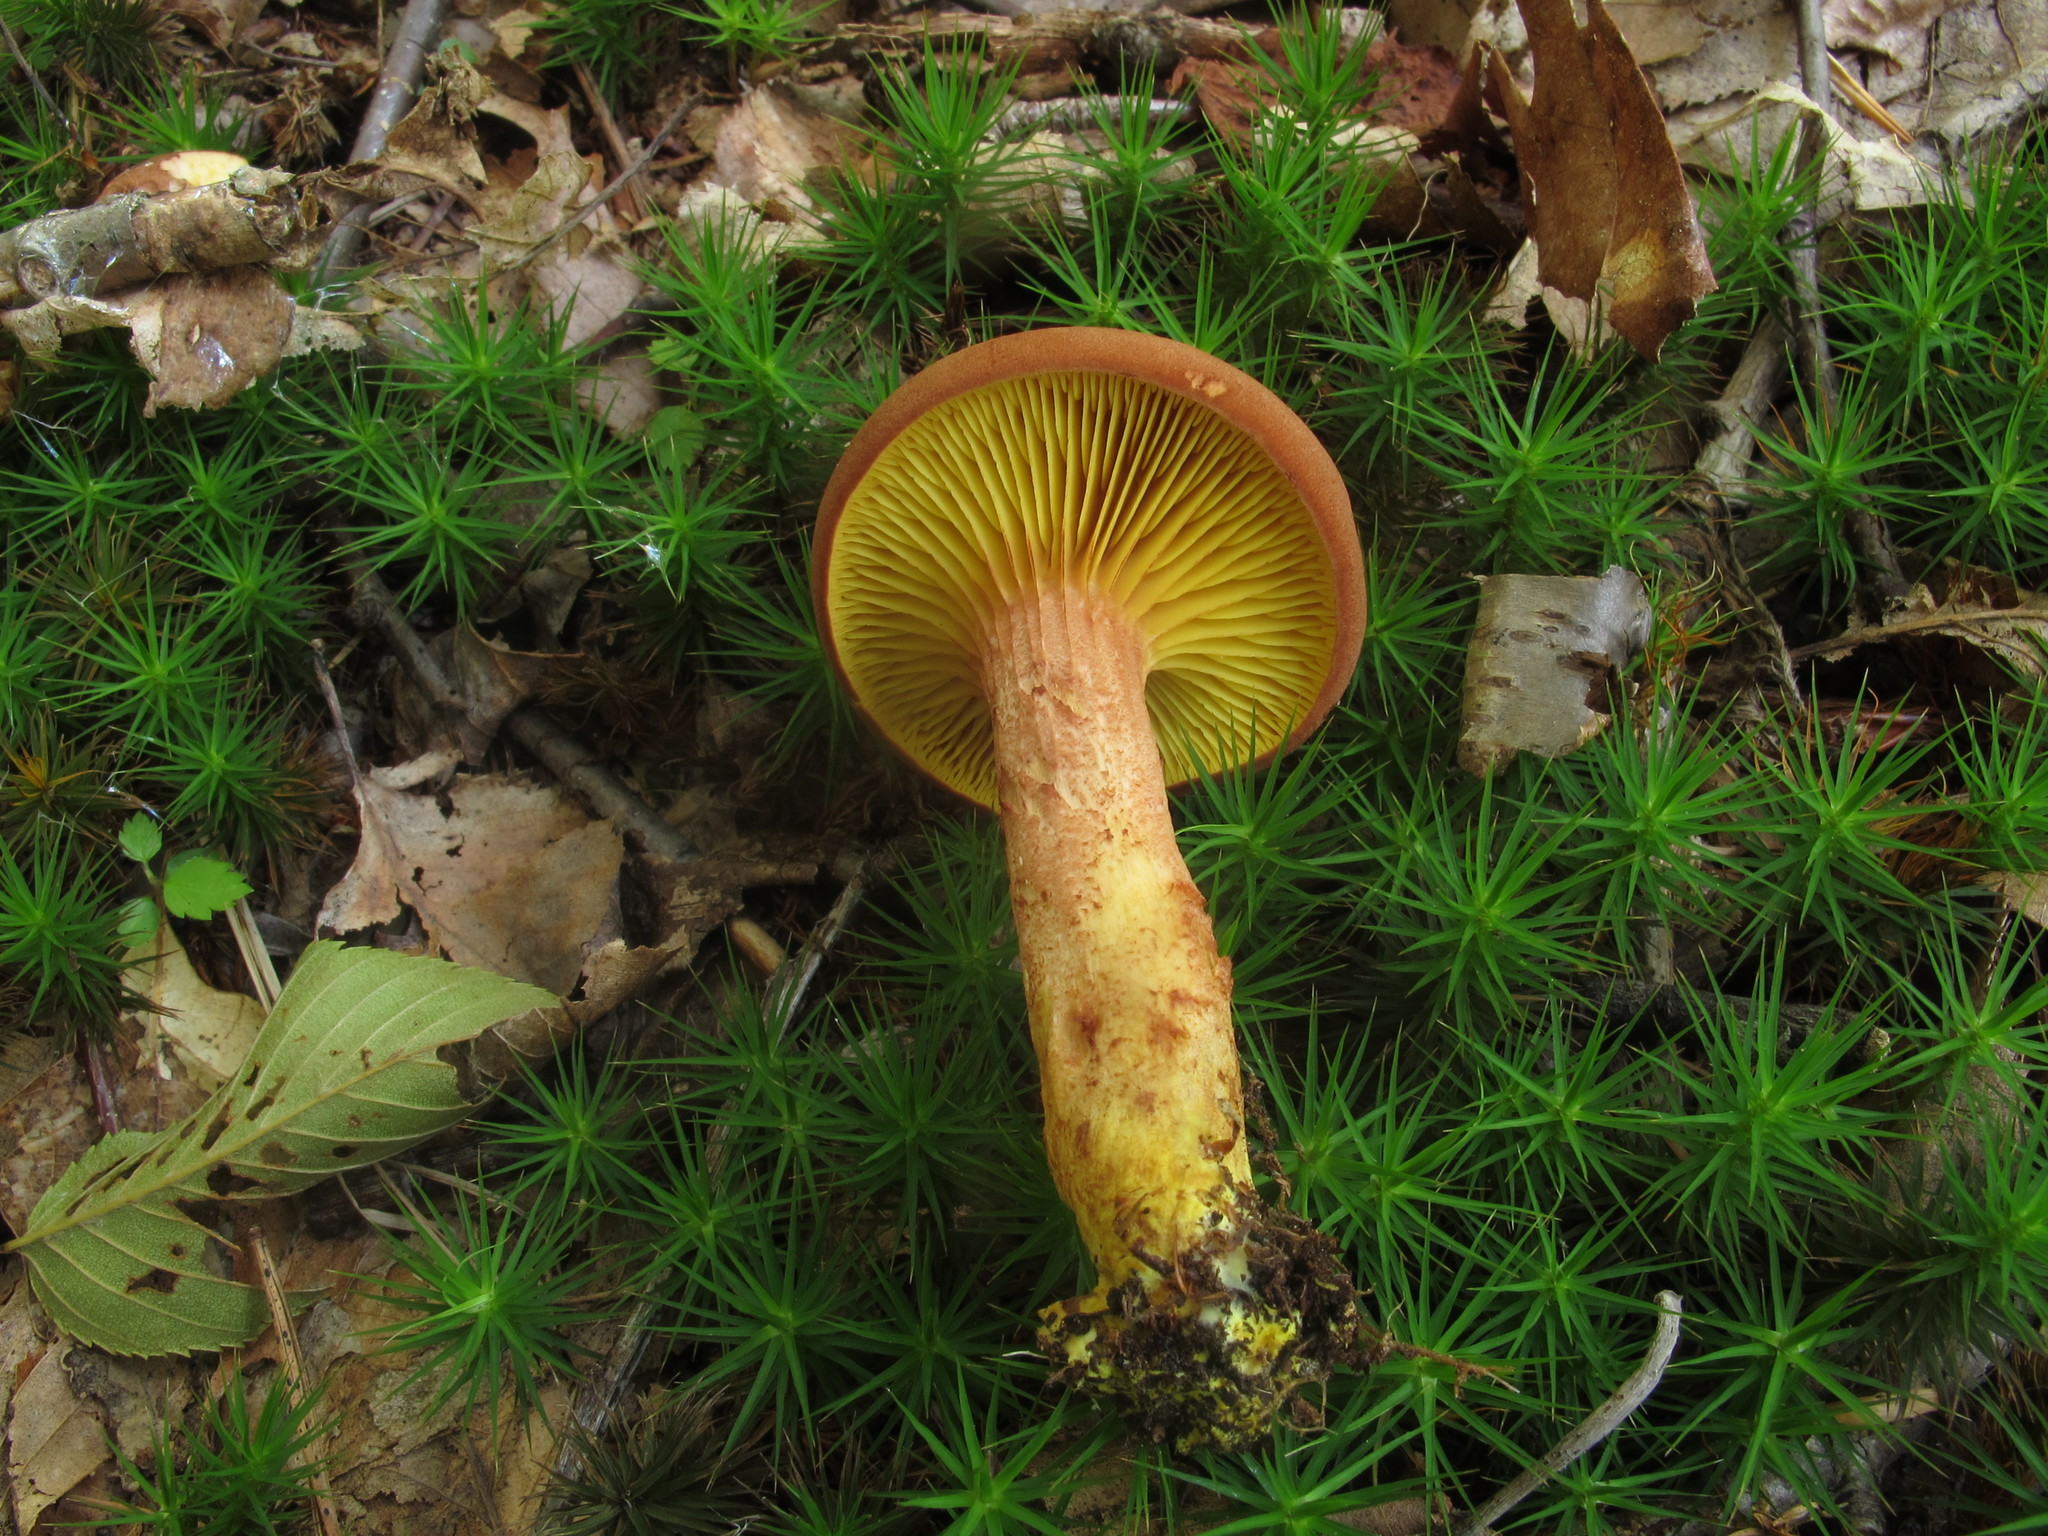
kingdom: Fungi
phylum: Basidiomycota
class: Agaricomycetes
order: Boletales
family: Boletaceae
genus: Phylloporus
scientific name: Phylloporus rhodoxanthus
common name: Golden gilled bolete
